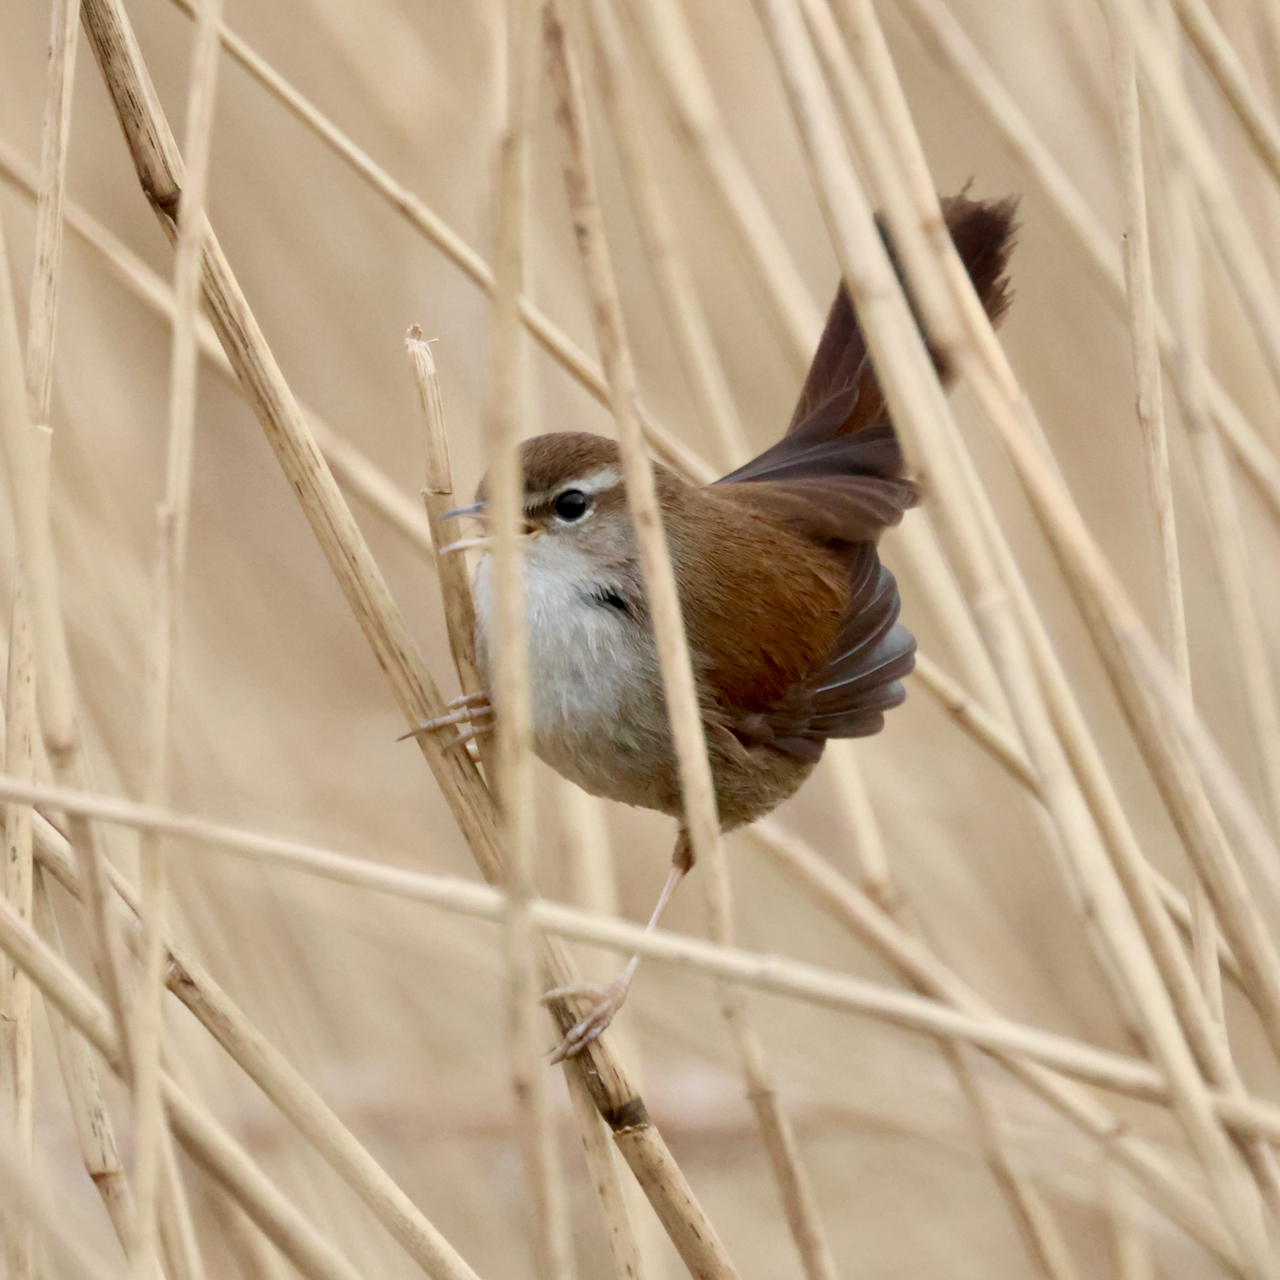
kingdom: Animalia
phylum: Chordata
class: Aves
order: Passeriformes
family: Cettiidae
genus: Cettia
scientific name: Cettia cetti
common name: Cetti's warbler
